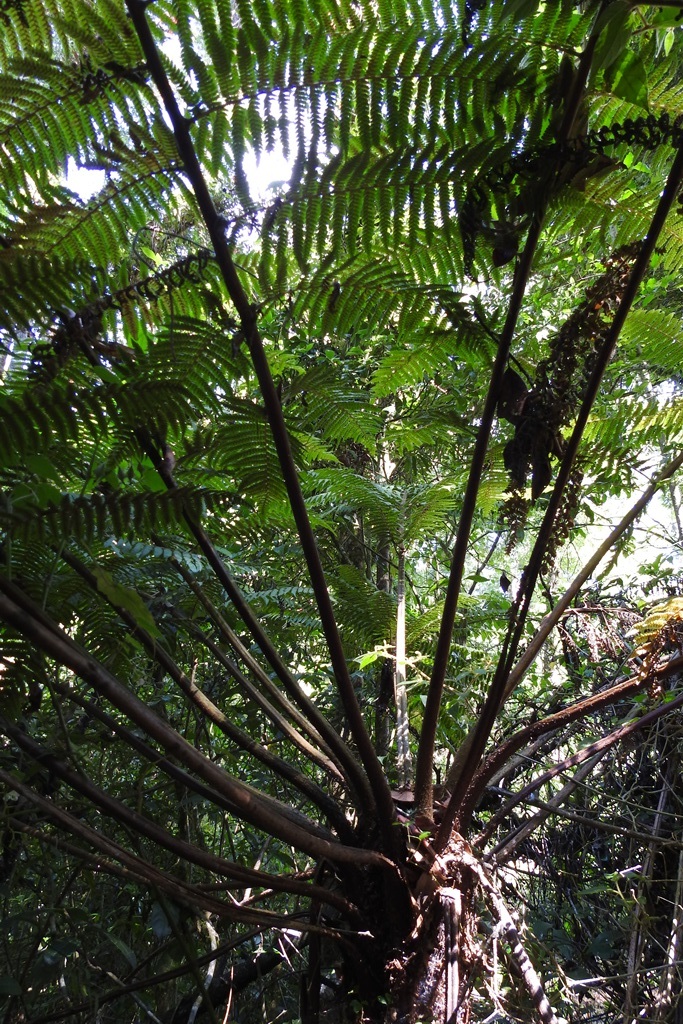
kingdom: Plantae
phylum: Tracheophyta
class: Polypodiopsida
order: Cyatheales
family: Cyatheaceae
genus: Cyathea
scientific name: Cyathea fulva
